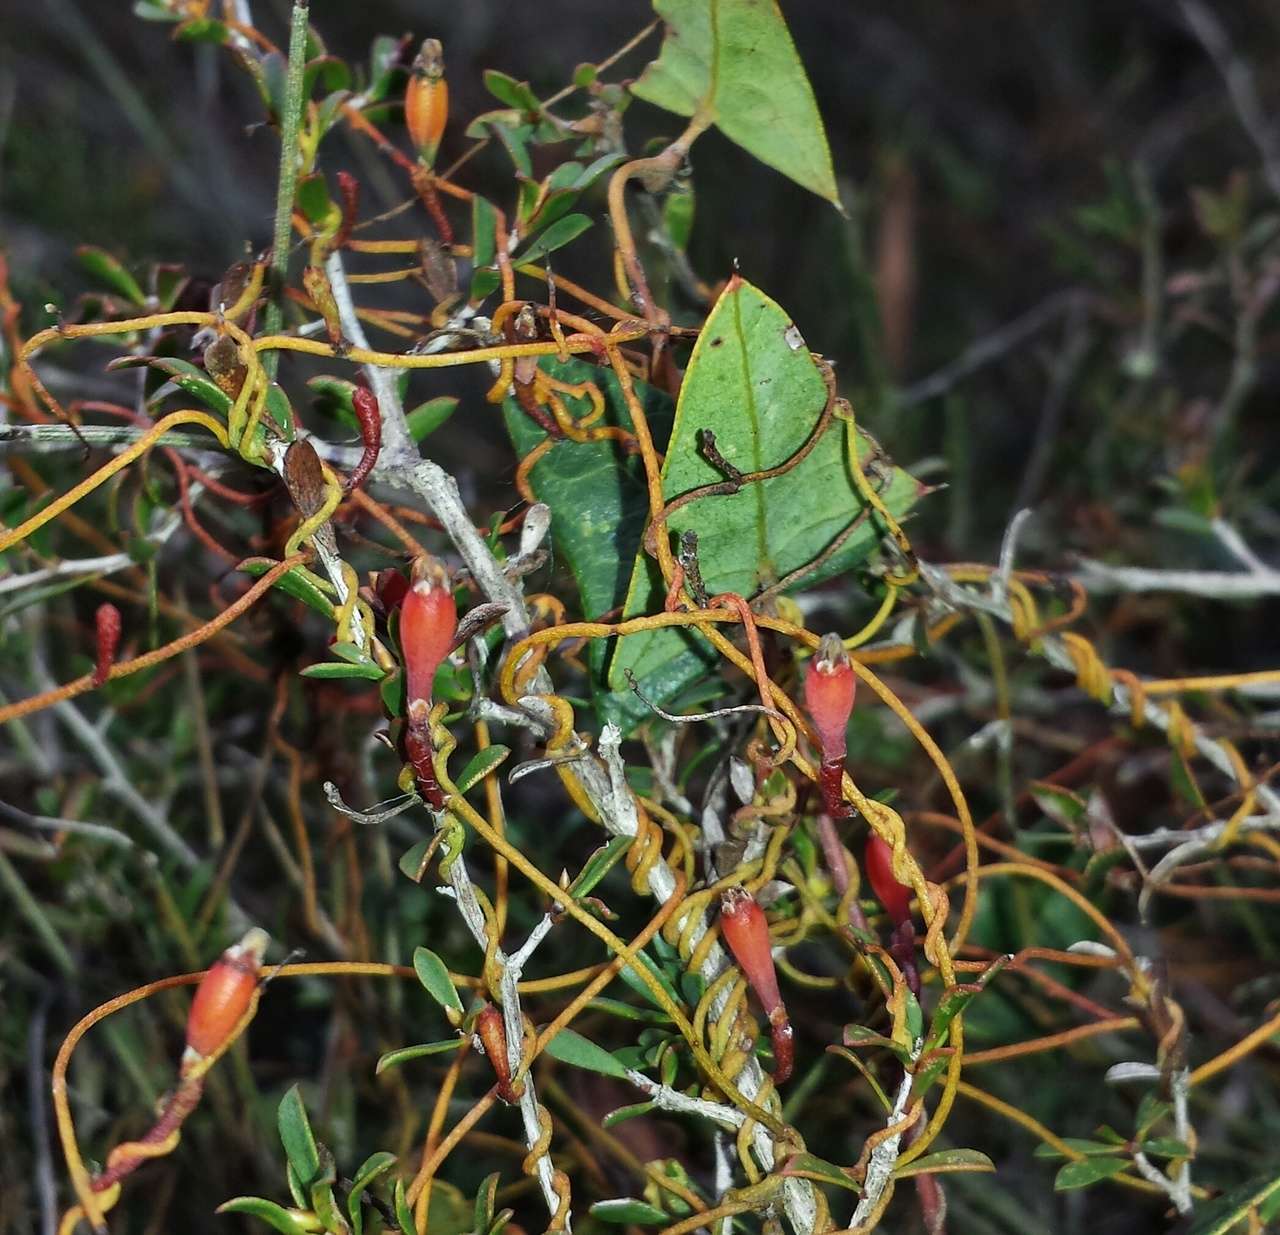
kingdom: Plantae
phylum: Tracheophyta
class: Magnoliopsida
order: Laurales
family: Lauraceae
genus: Cassytha
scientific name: Cassytha glabella
